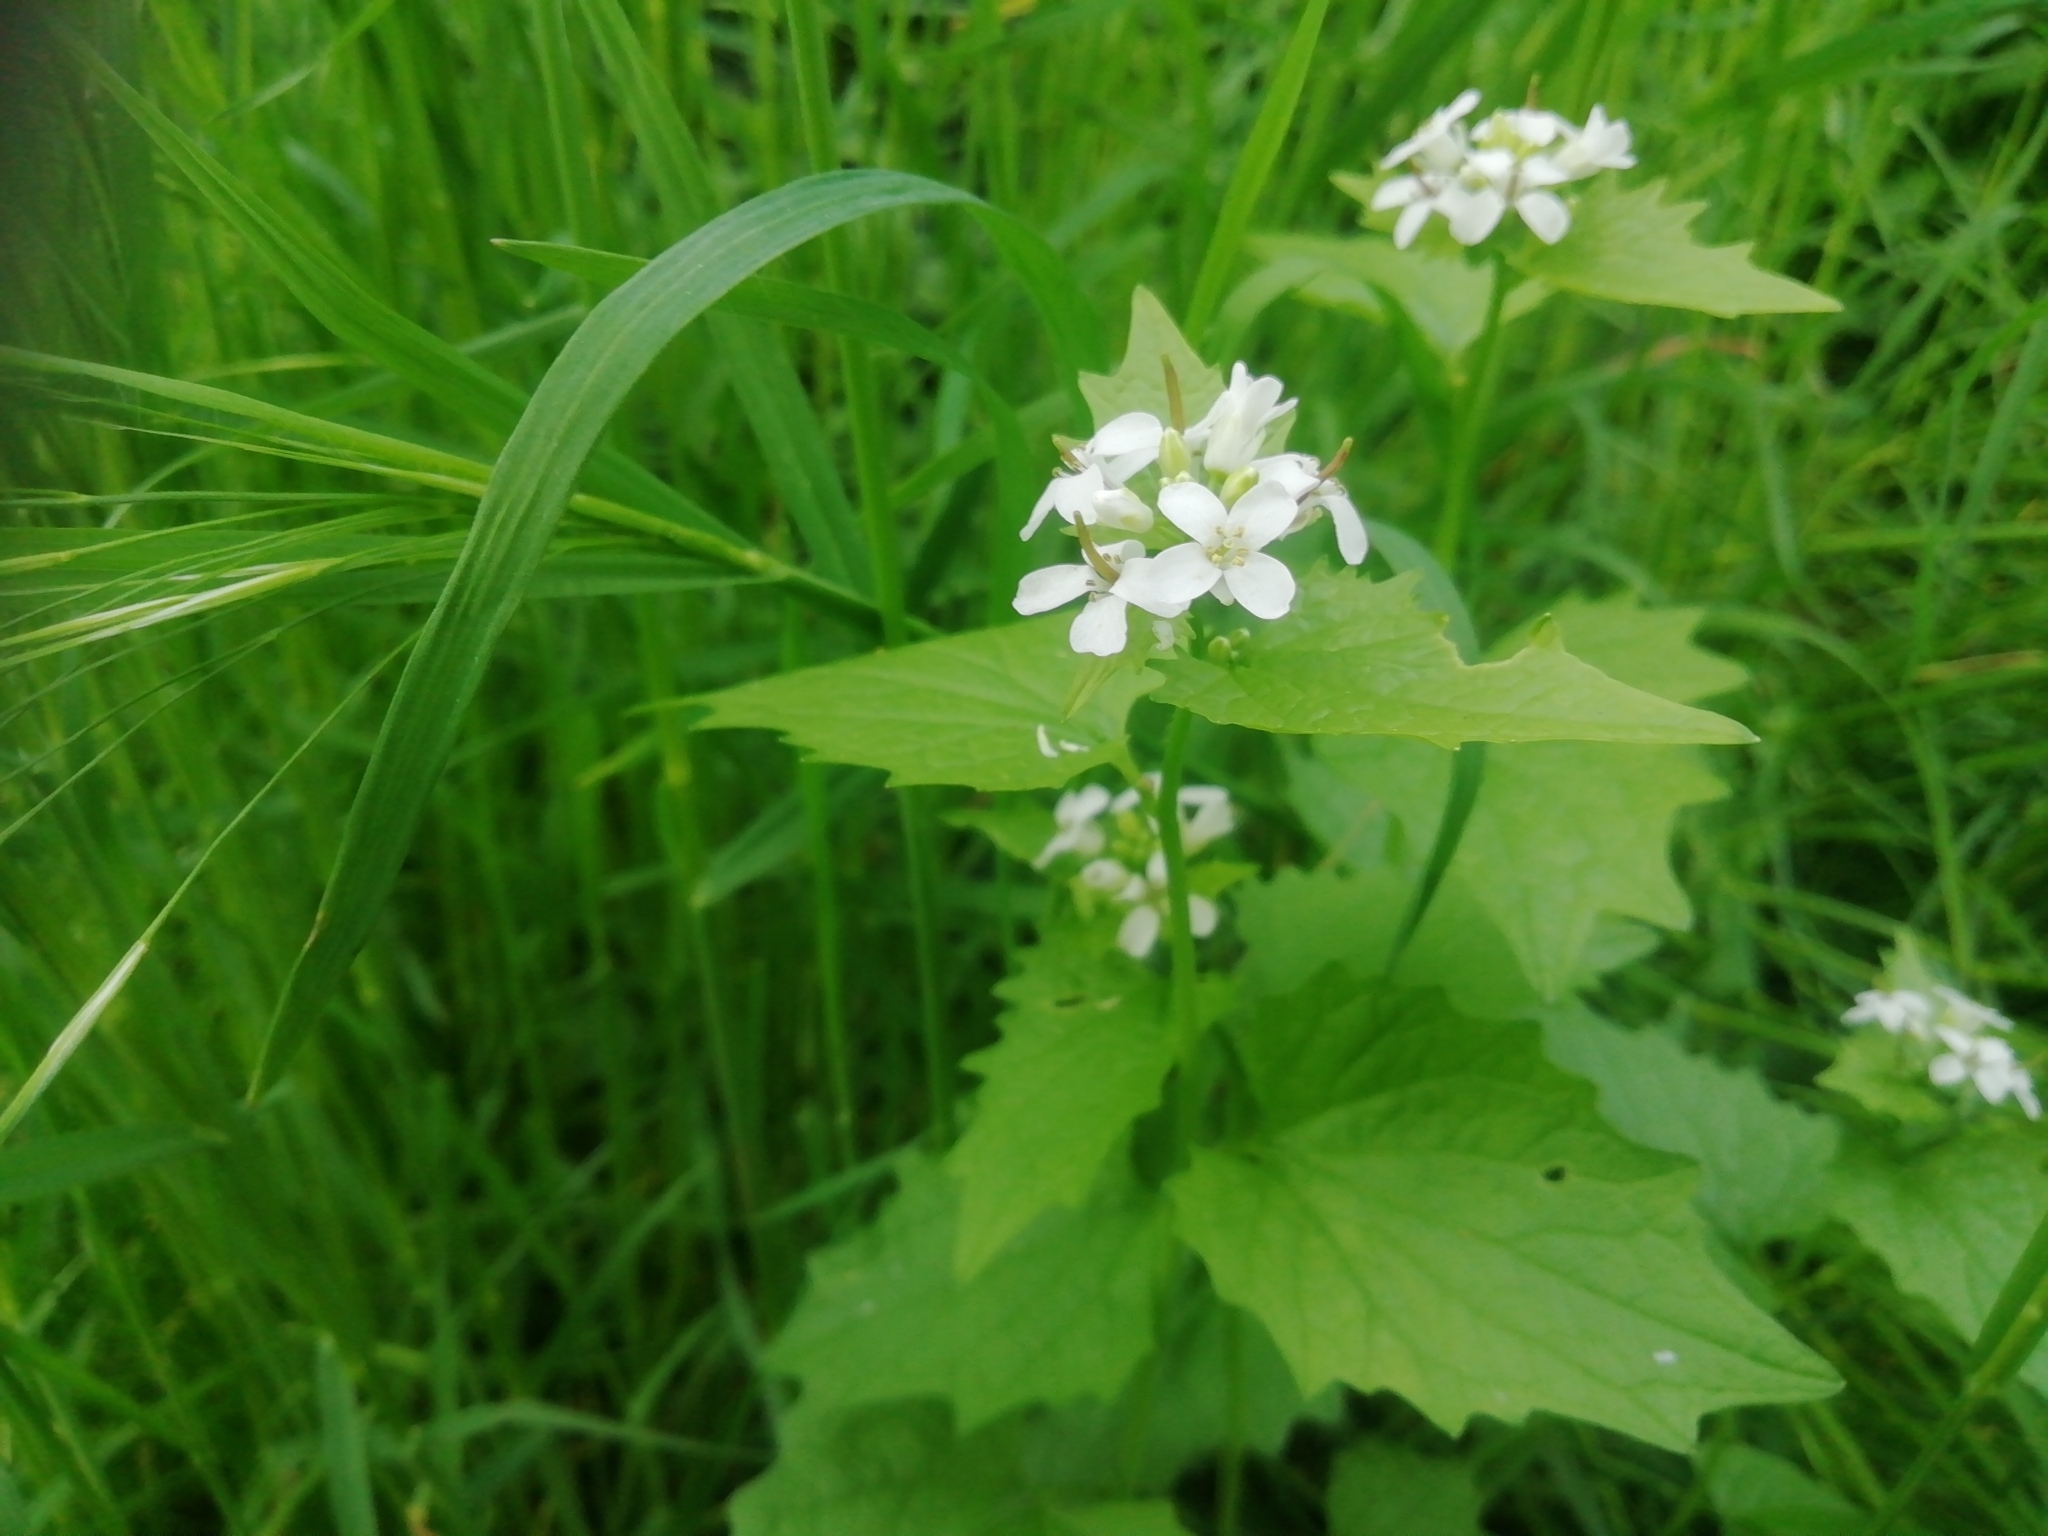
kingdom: Plantae
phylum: Tracheophyta
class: Magnoliopsida
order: Brassicales
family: Brassicaceae
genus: Alliaria
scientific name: Alliaria petiolata
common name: Garlic mustard
